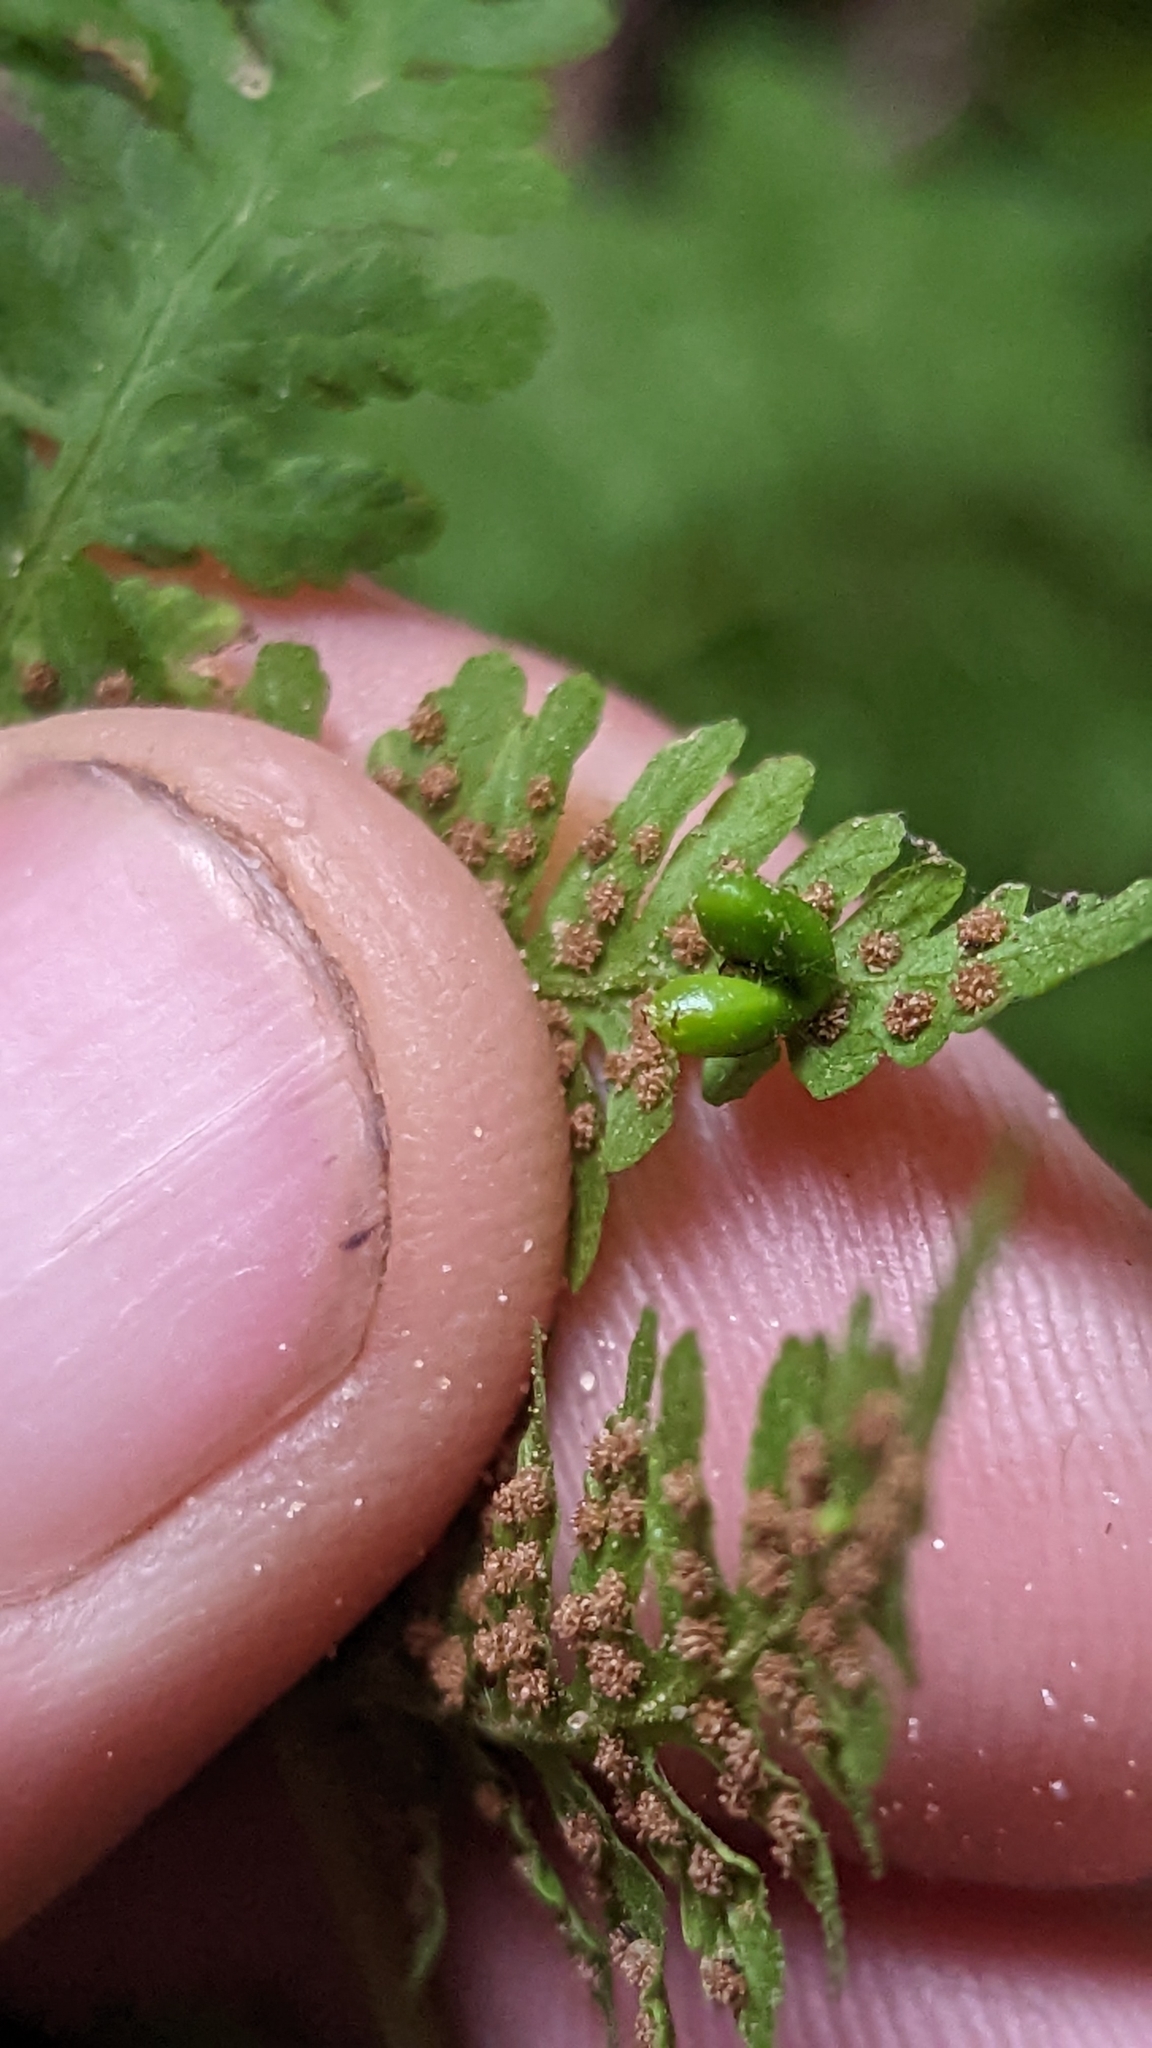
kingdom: Plantae
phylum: Tracheophyta
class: Polypodiopsida
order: Polypodiales
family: Cystopteridaceae
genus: Cystopteris
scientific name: Cystopteris bulbifera
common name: Bulblet bladder fern
